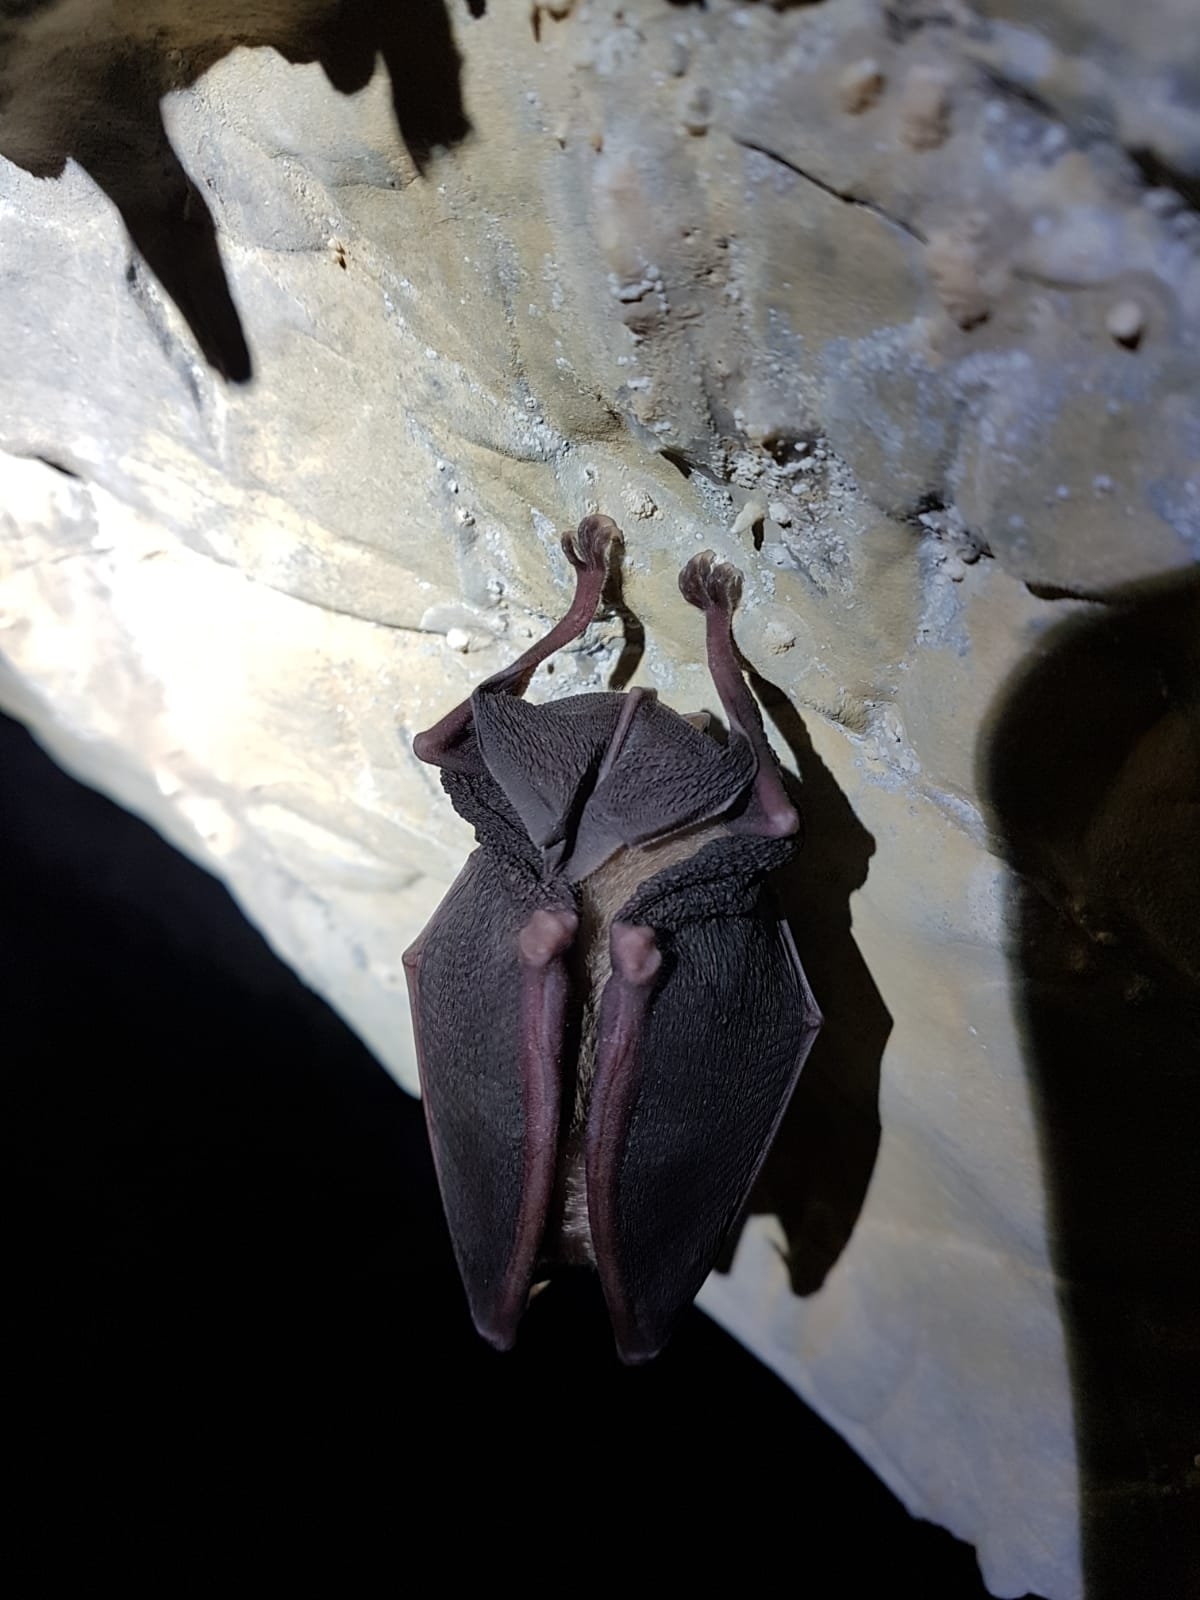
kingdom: Animalia
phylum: Chordata
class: Mammalia
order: Chiroptera
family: Rhinolophidae
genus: Rhinolophus
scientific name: Rhinolophus ferrumequinum
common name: Greater horseshoe bat
